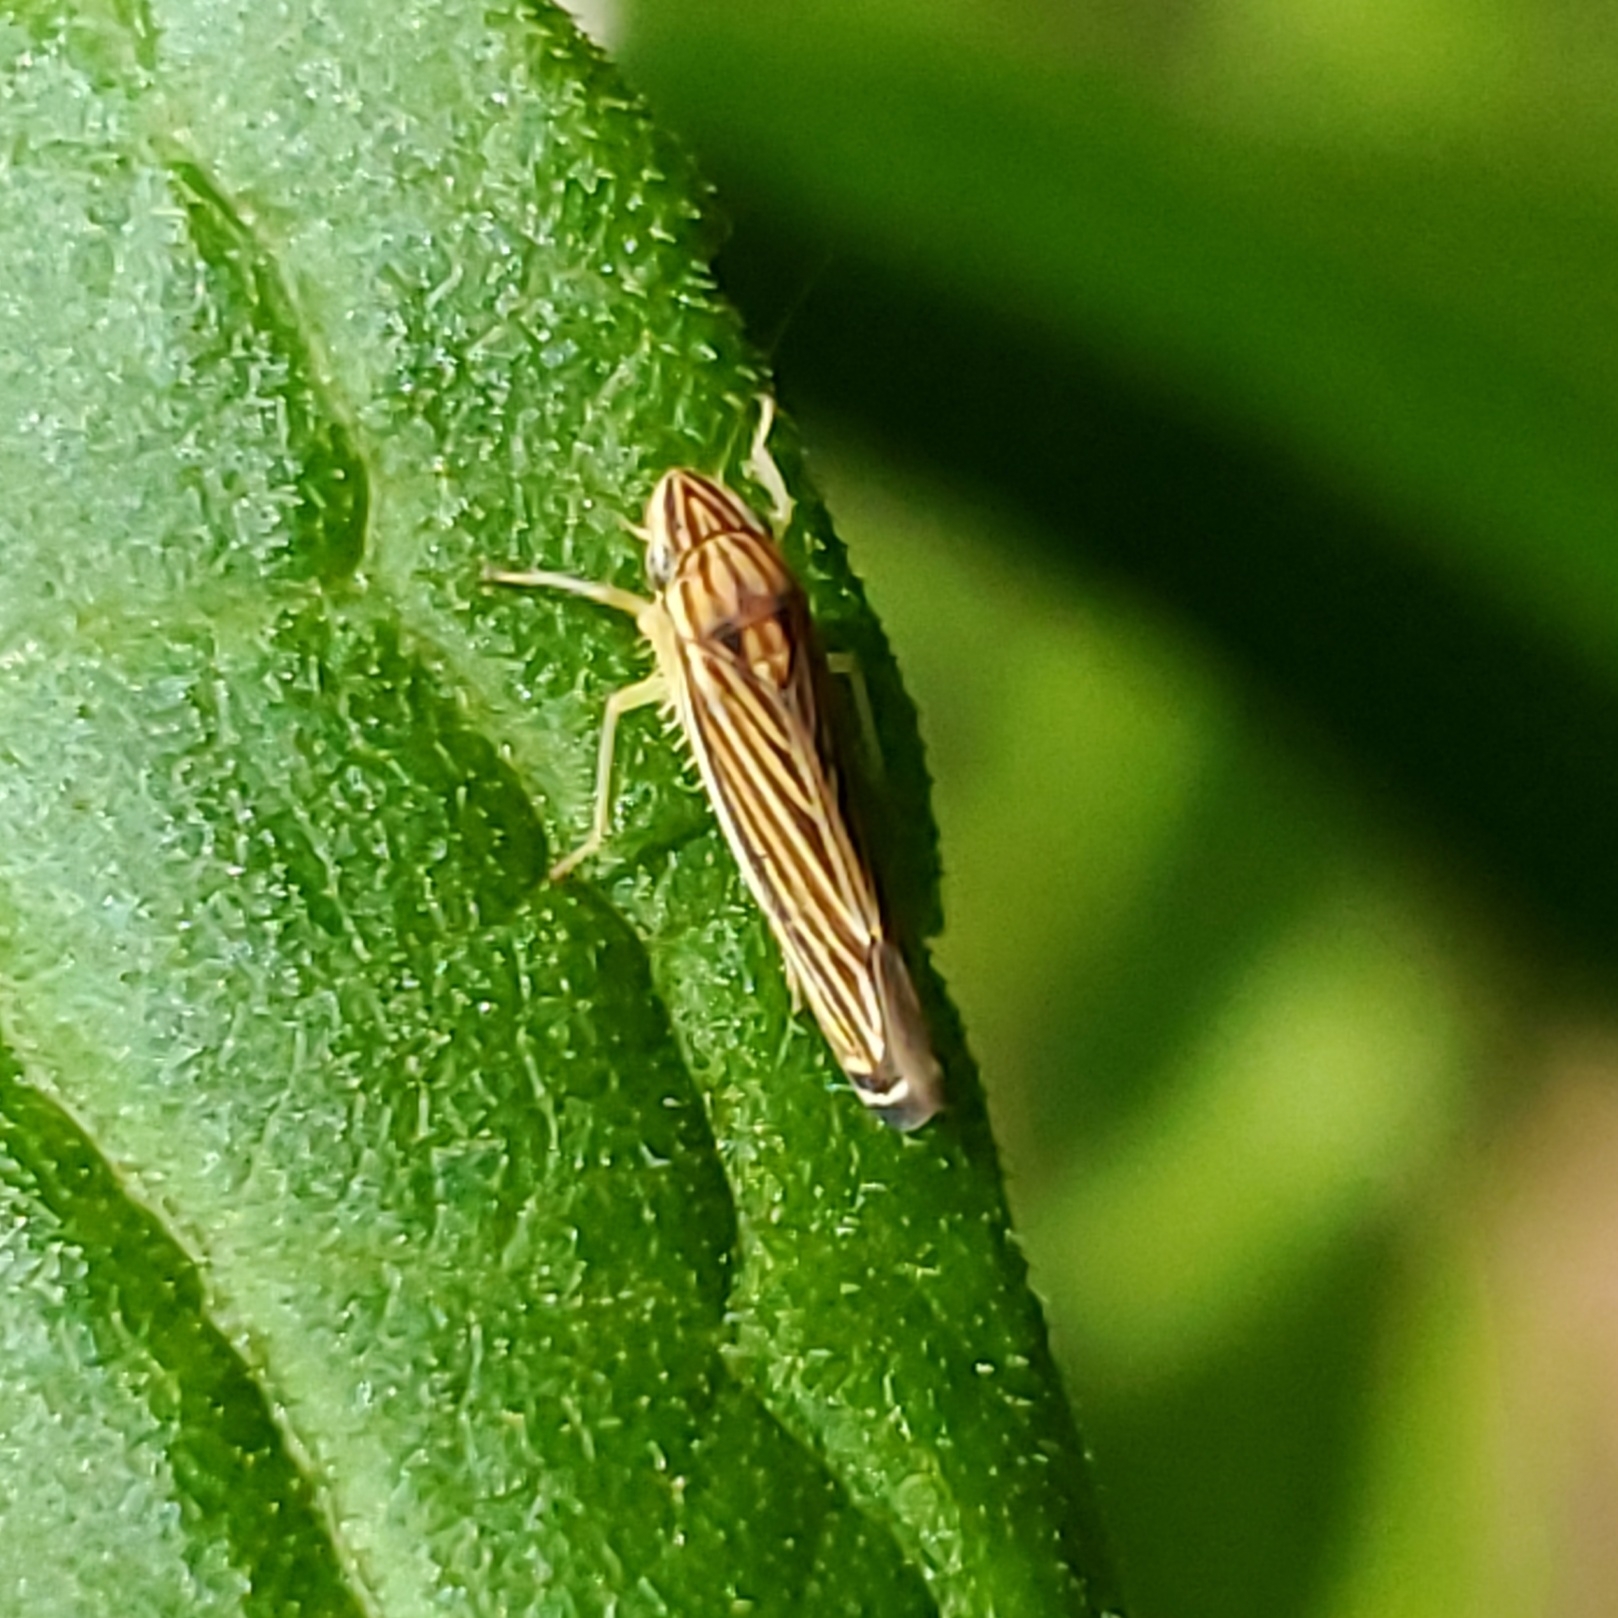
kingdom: Animalia
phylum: Arthropoda
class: Insecta
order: Hemiptera
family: Cicadellidae
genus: Sibovia
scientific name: Sibovia occatoria
